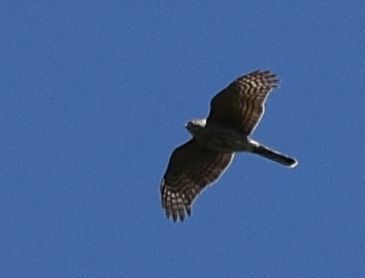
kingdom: Animalia
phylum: Chordata
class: Aves
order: Accipitriformes
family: Accipitridae
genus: Accipiter
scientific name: Accipiter striatus
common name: Sharp-shinned hawk
